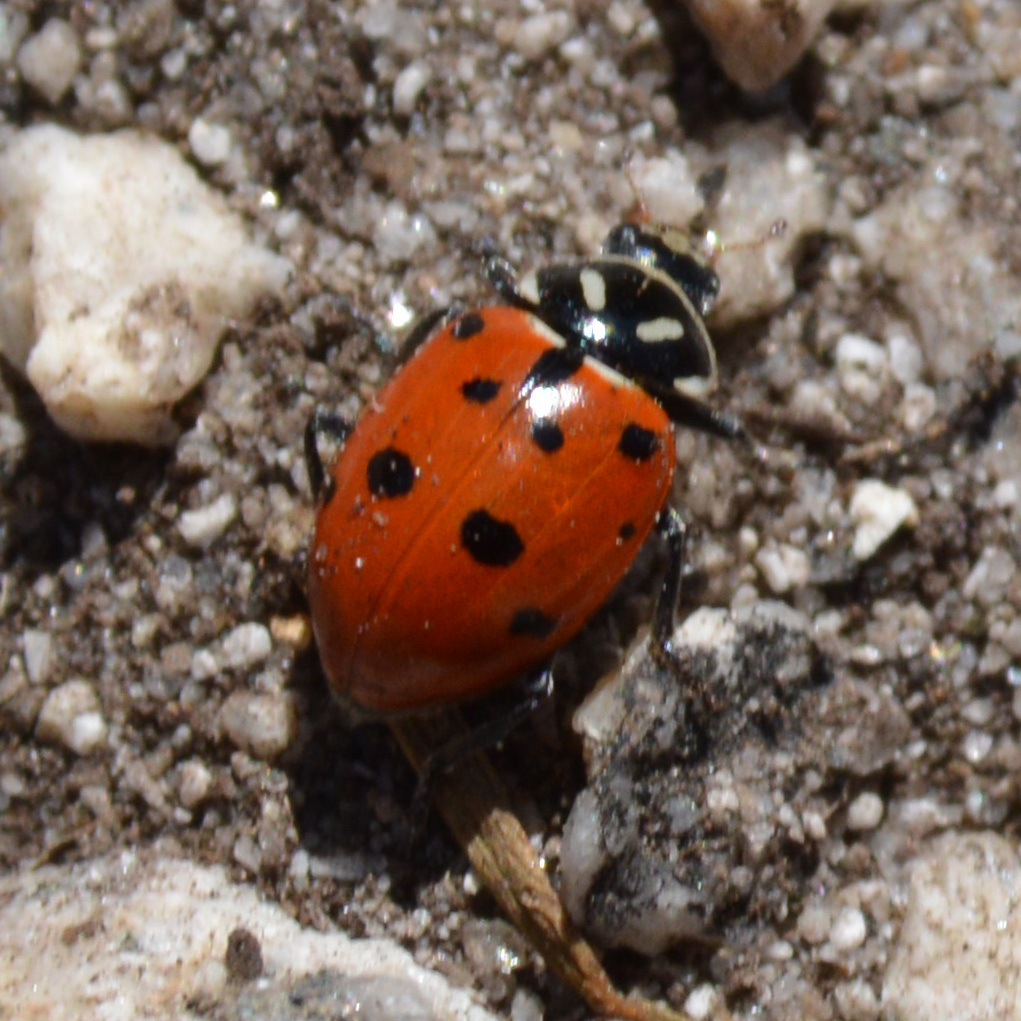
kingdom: Animalia
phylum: Arthropoda
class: Insecta
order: Coleoptera
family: Coccinellidae
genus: Hippodamia
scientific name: Hippodamia convergens
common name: Convergent lady beetle
